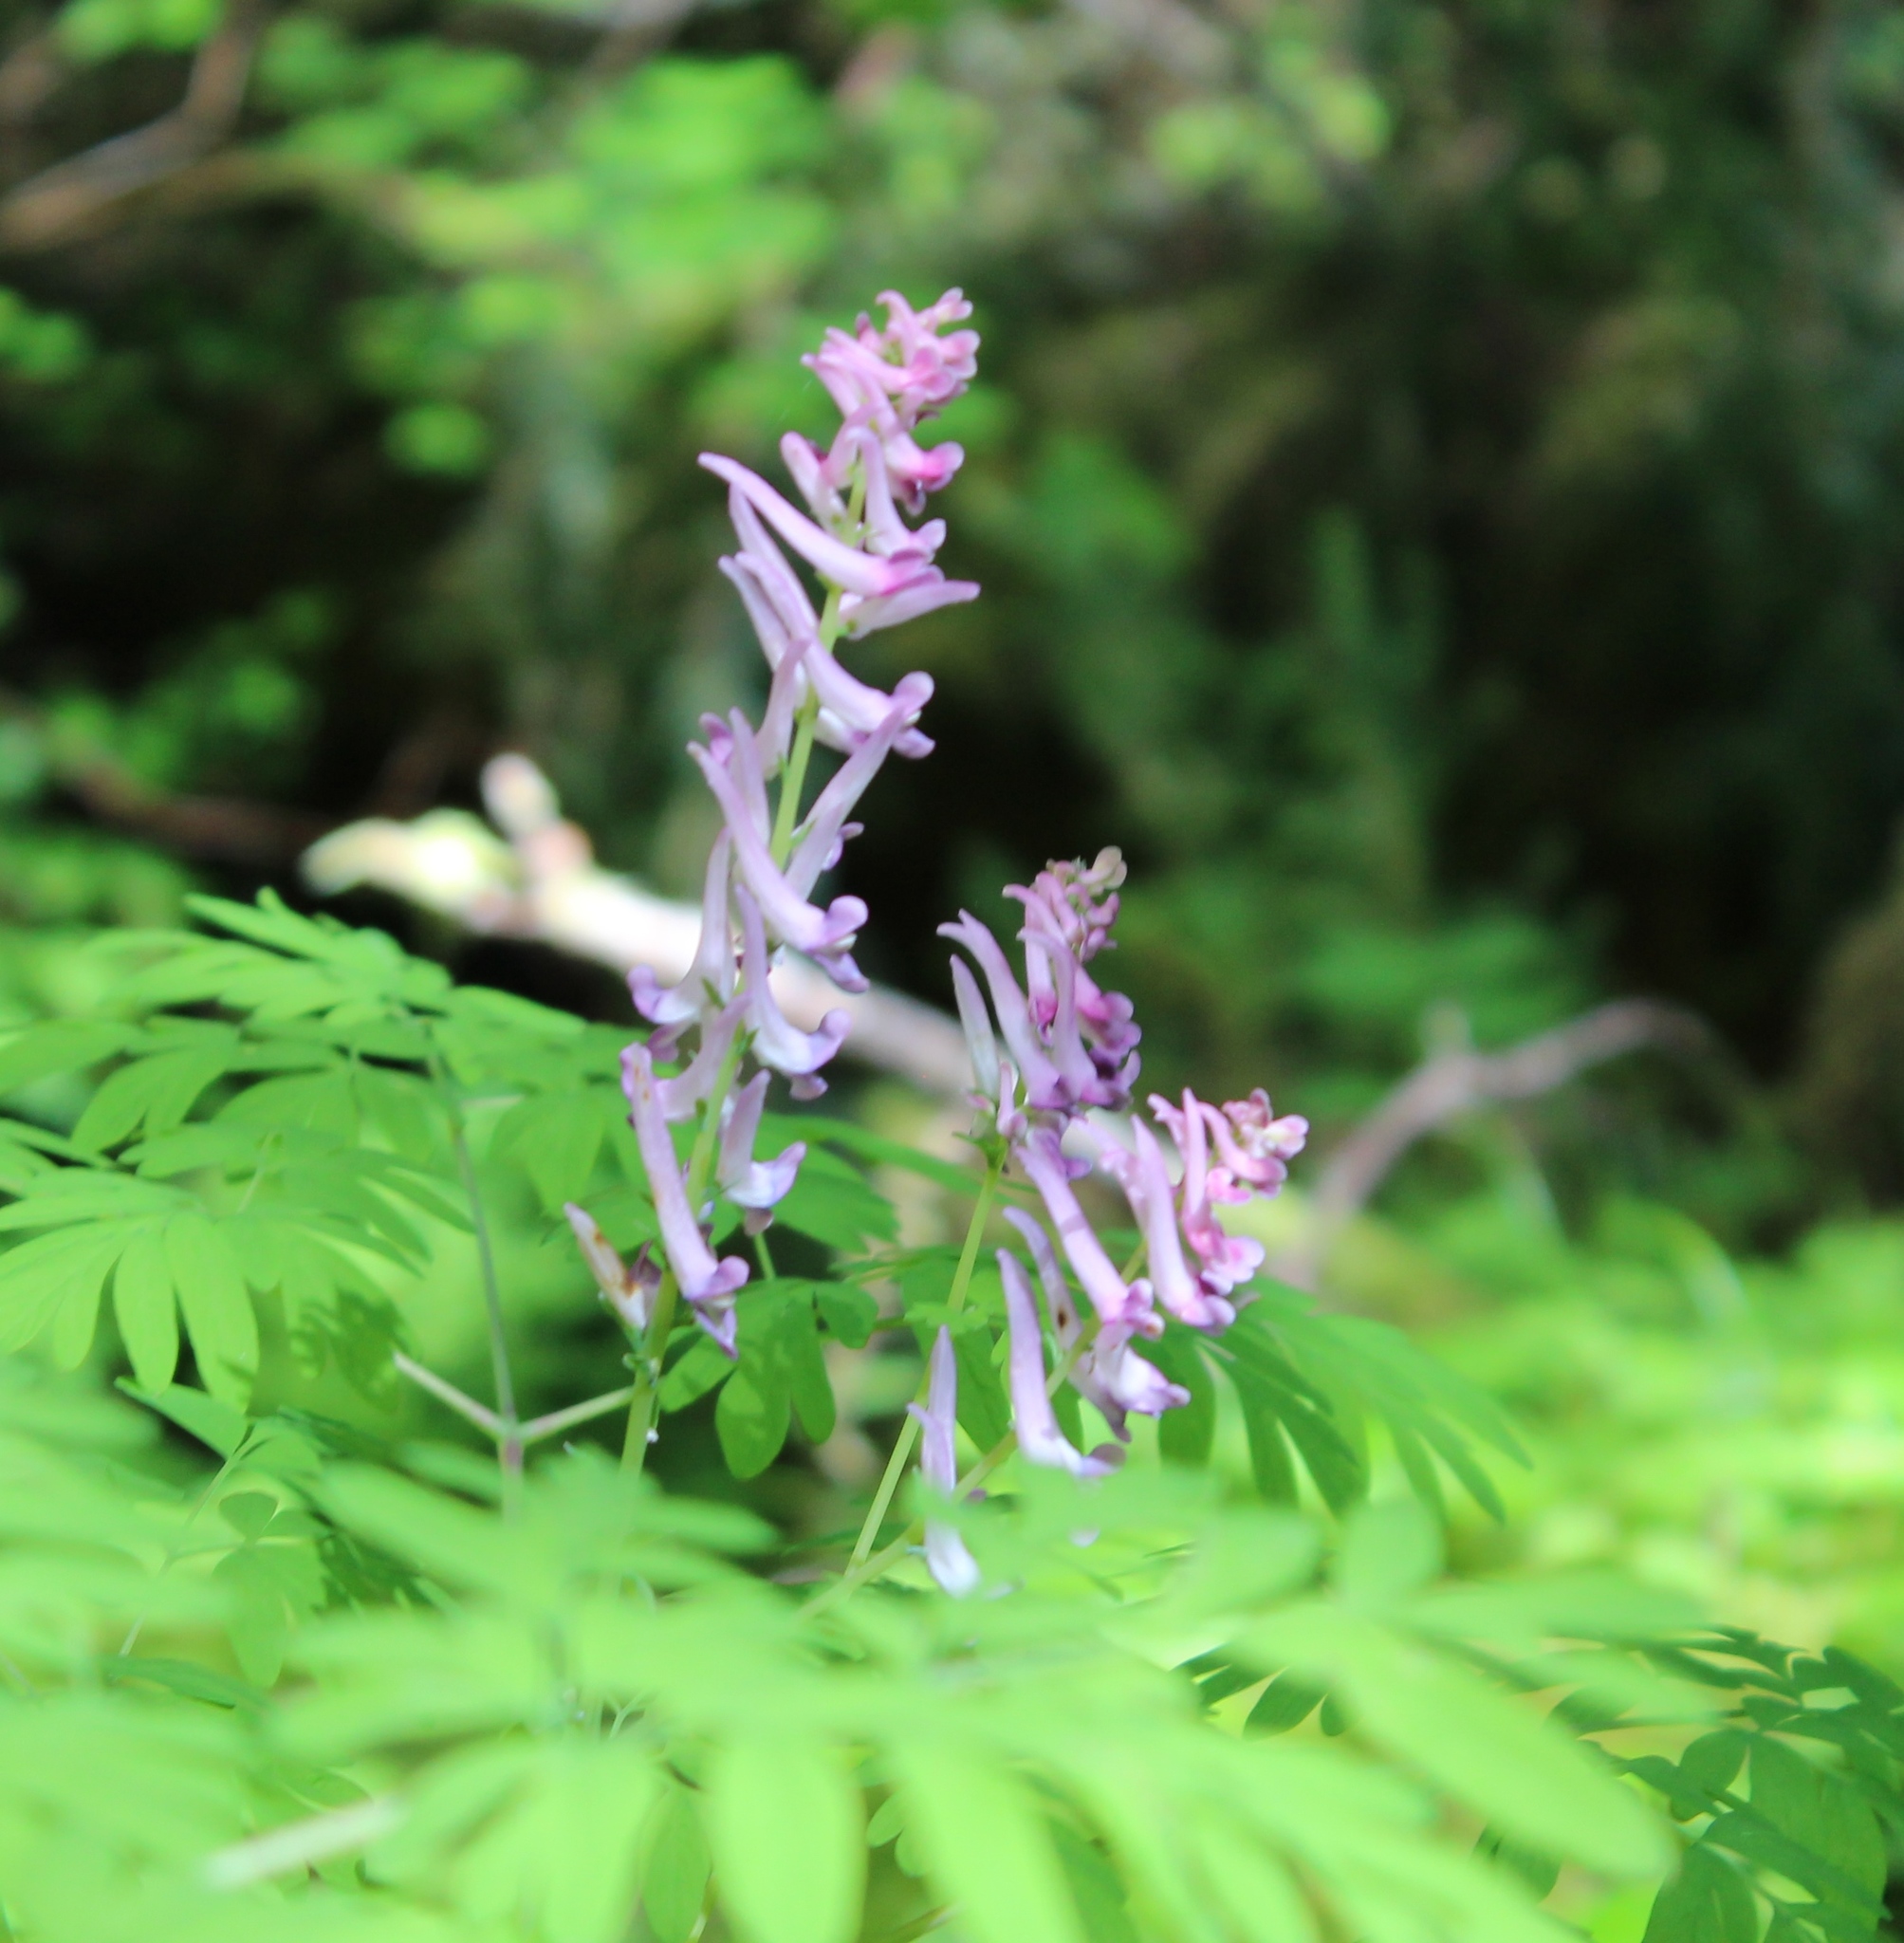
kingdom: Plantae
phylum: Tracheophyta
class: Magnoliopsida
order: Ranunculales
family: Papaveraceae
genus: Corydalis
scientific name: Corydalis scouleri
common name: Scouler's corydalis
